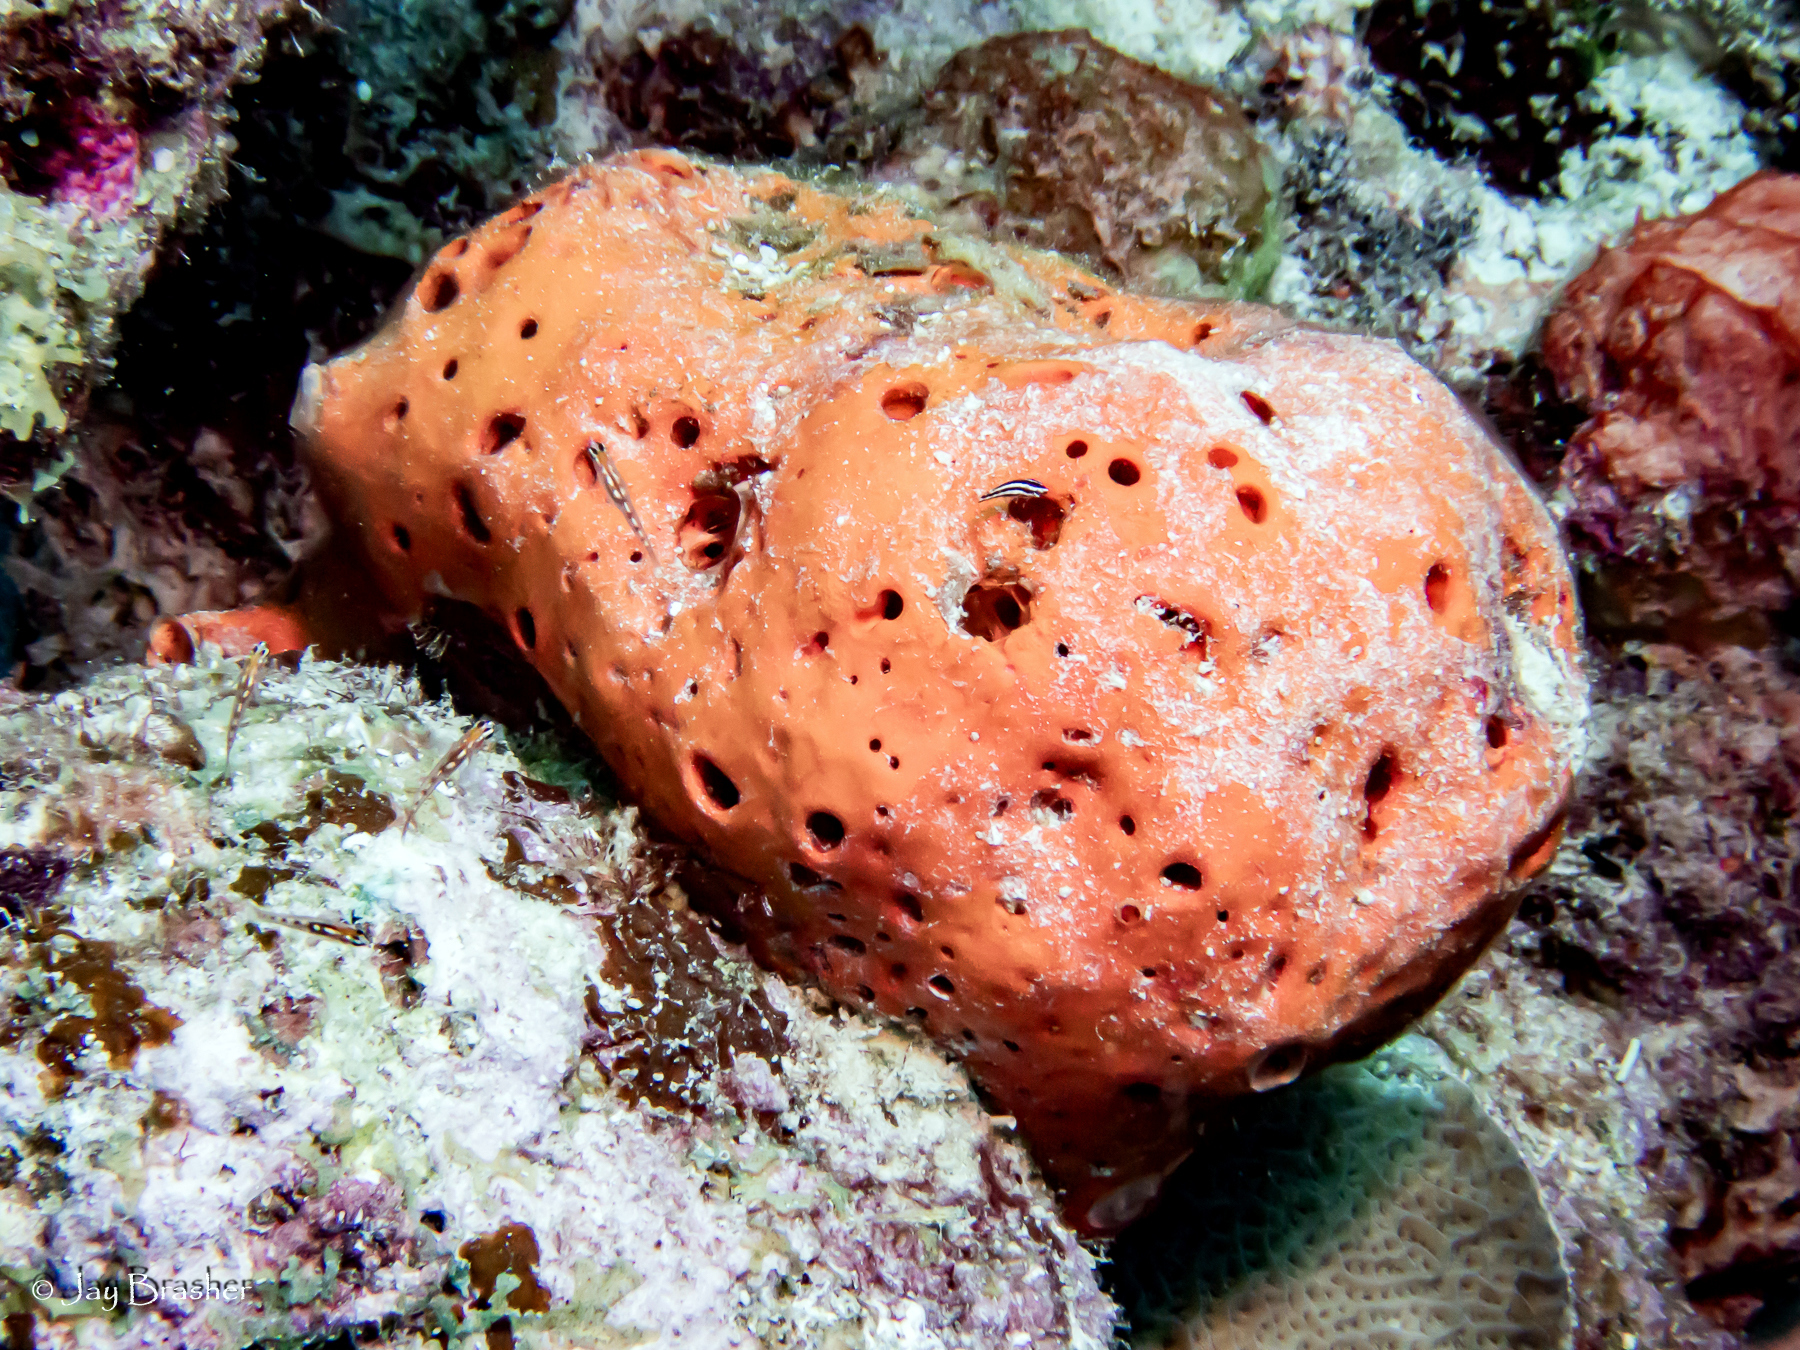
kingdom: Animalia
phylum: Porifera
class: Demospongiae
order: Agelasida
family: Agelasidae
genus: Agelas
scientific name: Agelas sventres
